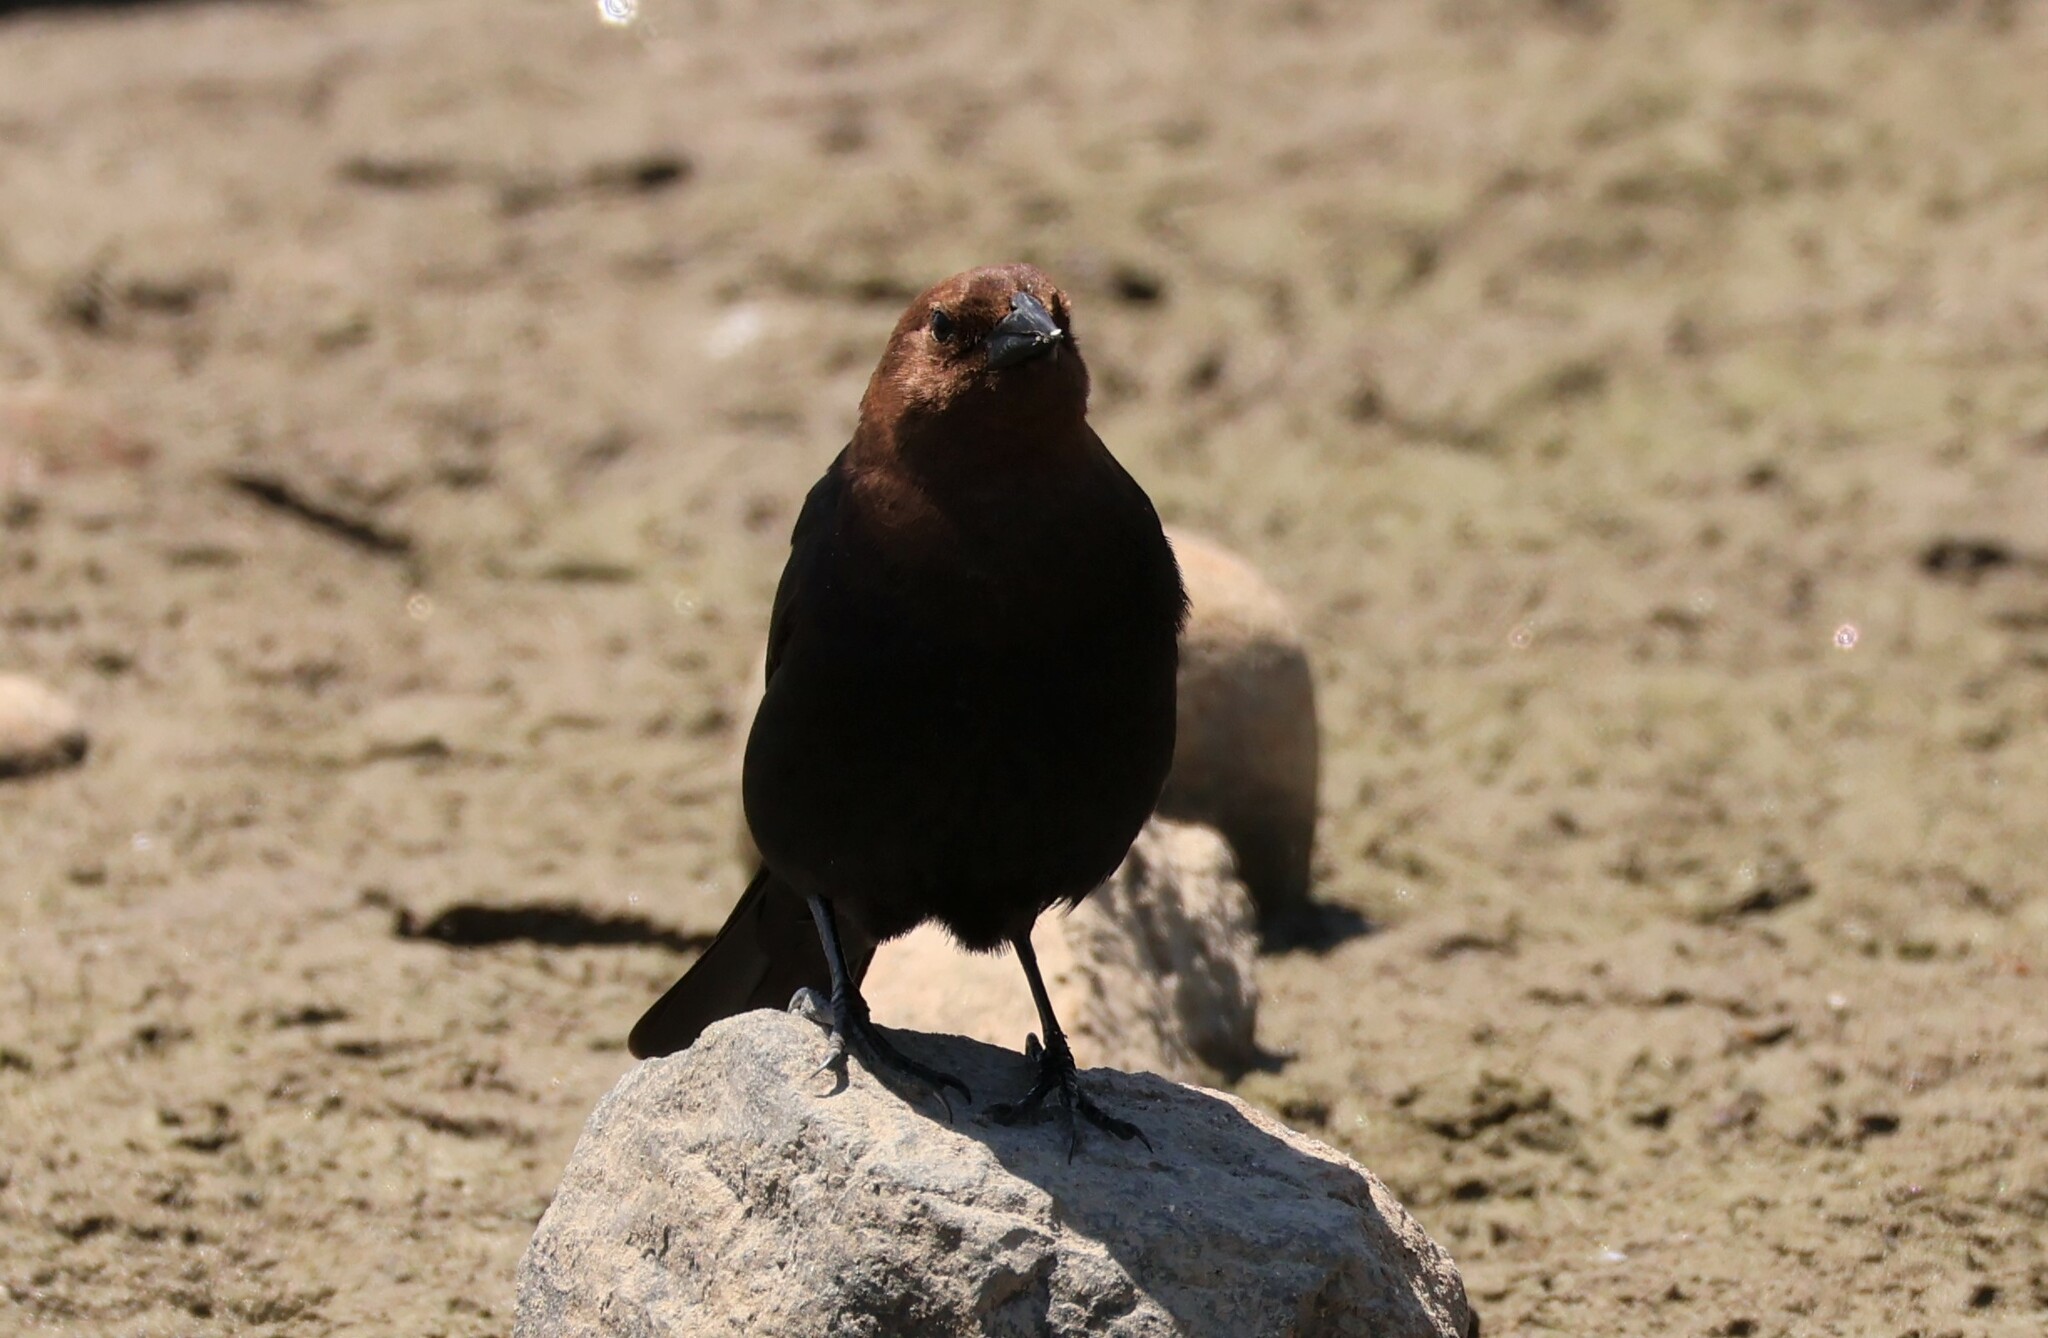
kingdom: Animalia
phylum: Chordata
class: Aves
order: Passeriformes
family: Icteridae
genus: Molothrus
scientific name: Molothrus ater
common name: Brown-headed cowbird
